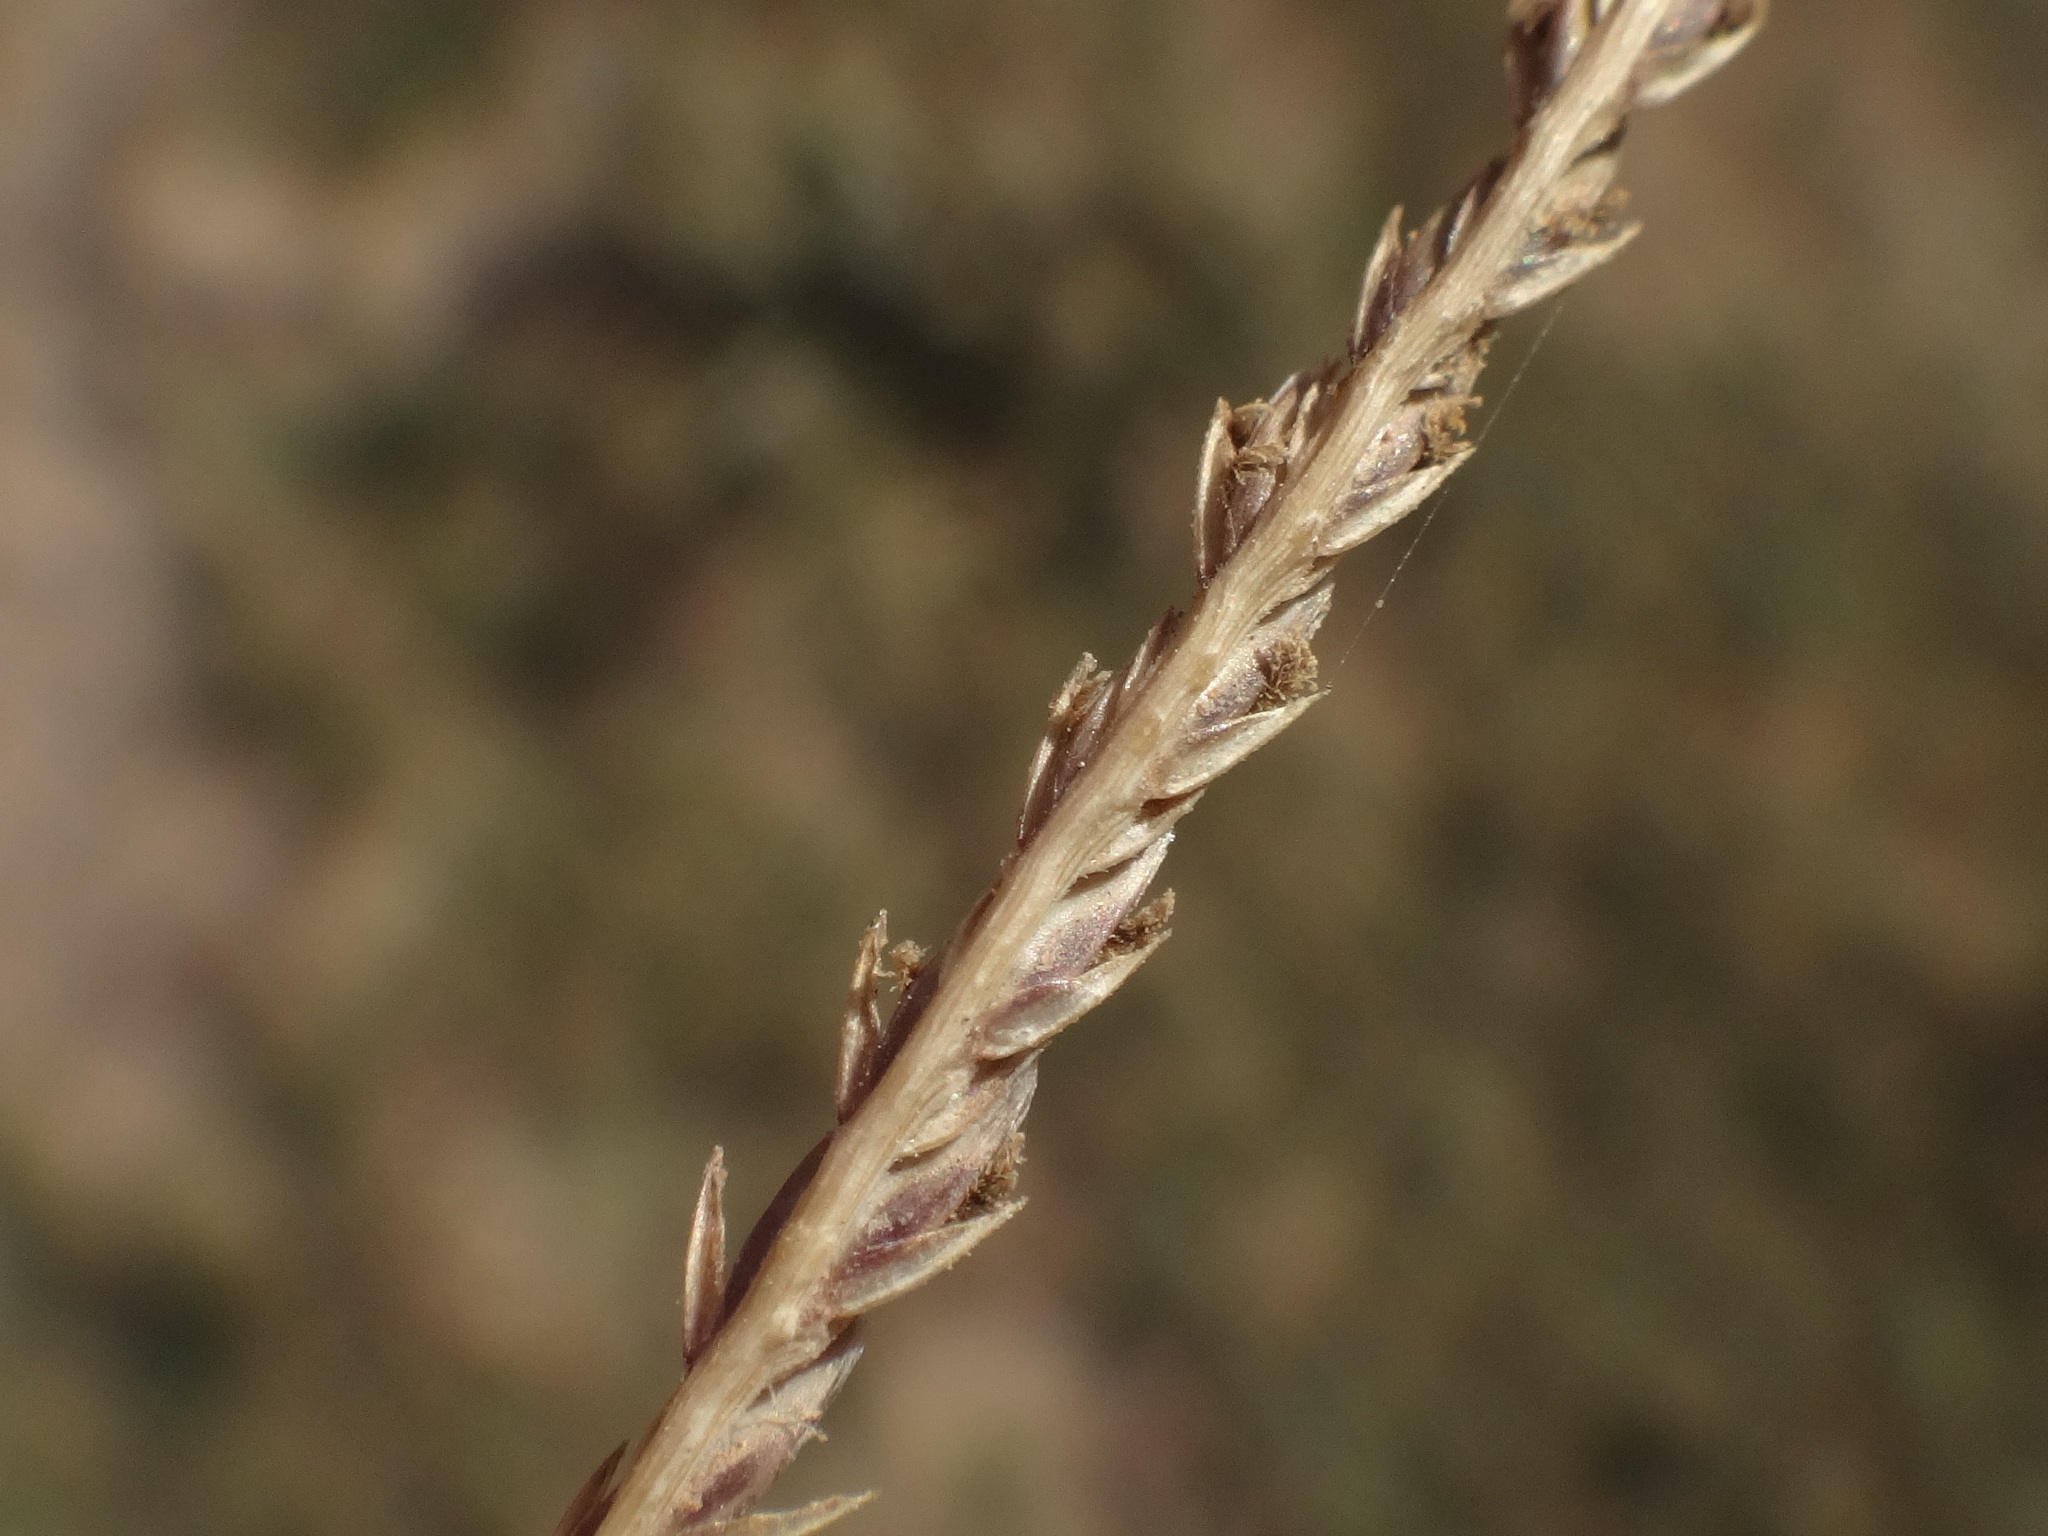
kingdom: Plantae
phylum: Tracheophyta
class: Liliopsida
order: Poales
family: Poaceae
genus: Cynodon
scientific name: Cynodon dactylon
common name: Bermuda grass
